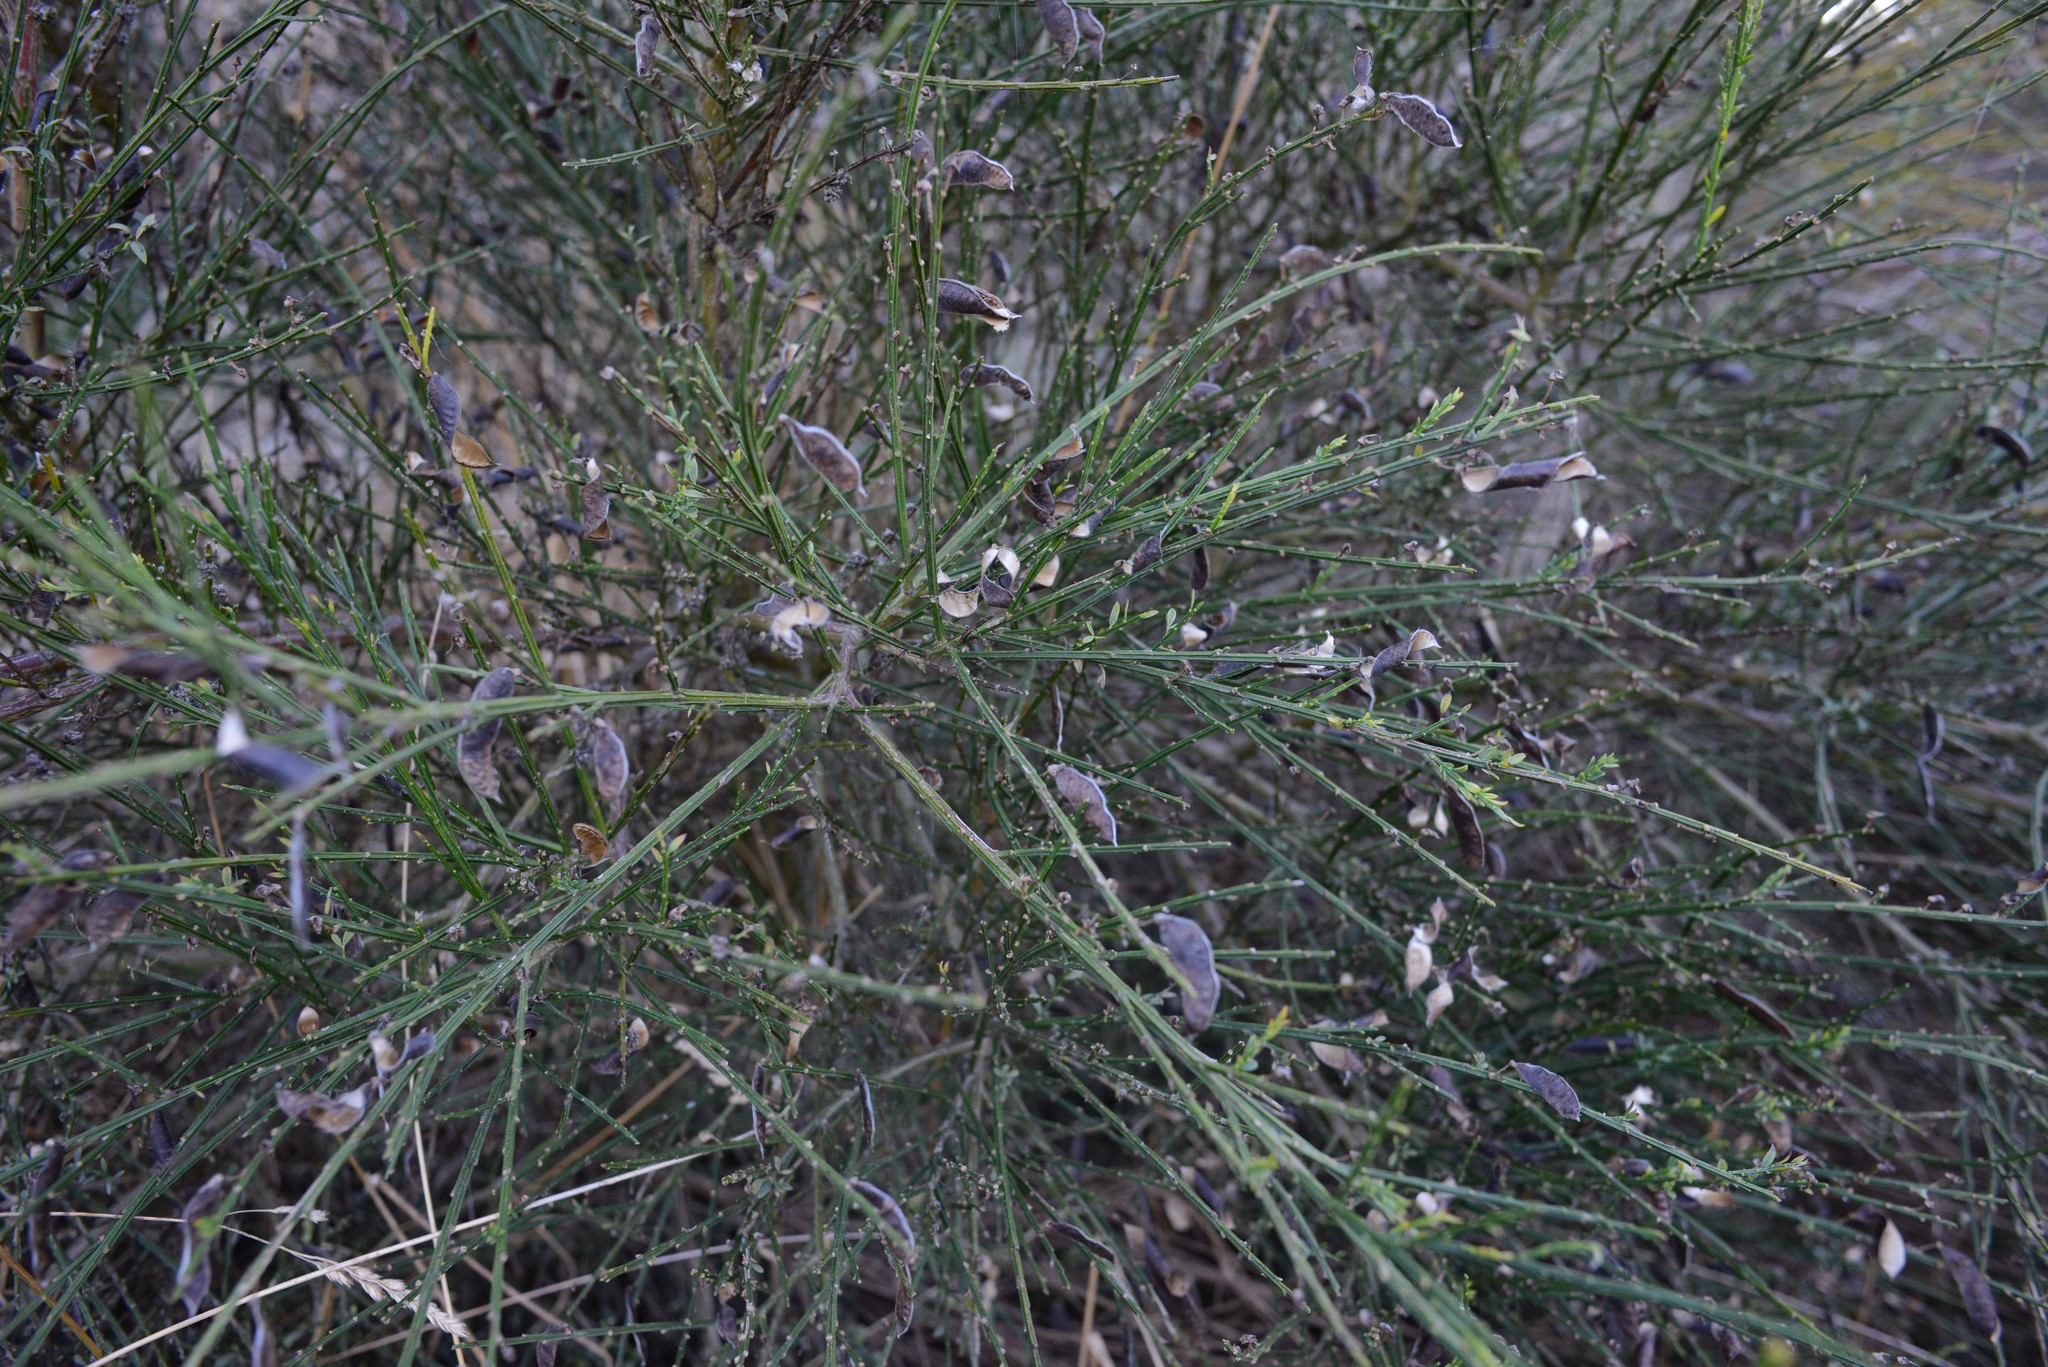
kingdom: Plantae
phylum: Tracheophyta
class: Magnoliopsida
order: Fabales
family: Fabaceae
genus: Cytisus
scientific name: Cytisus scoparius
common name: Scotch broom
